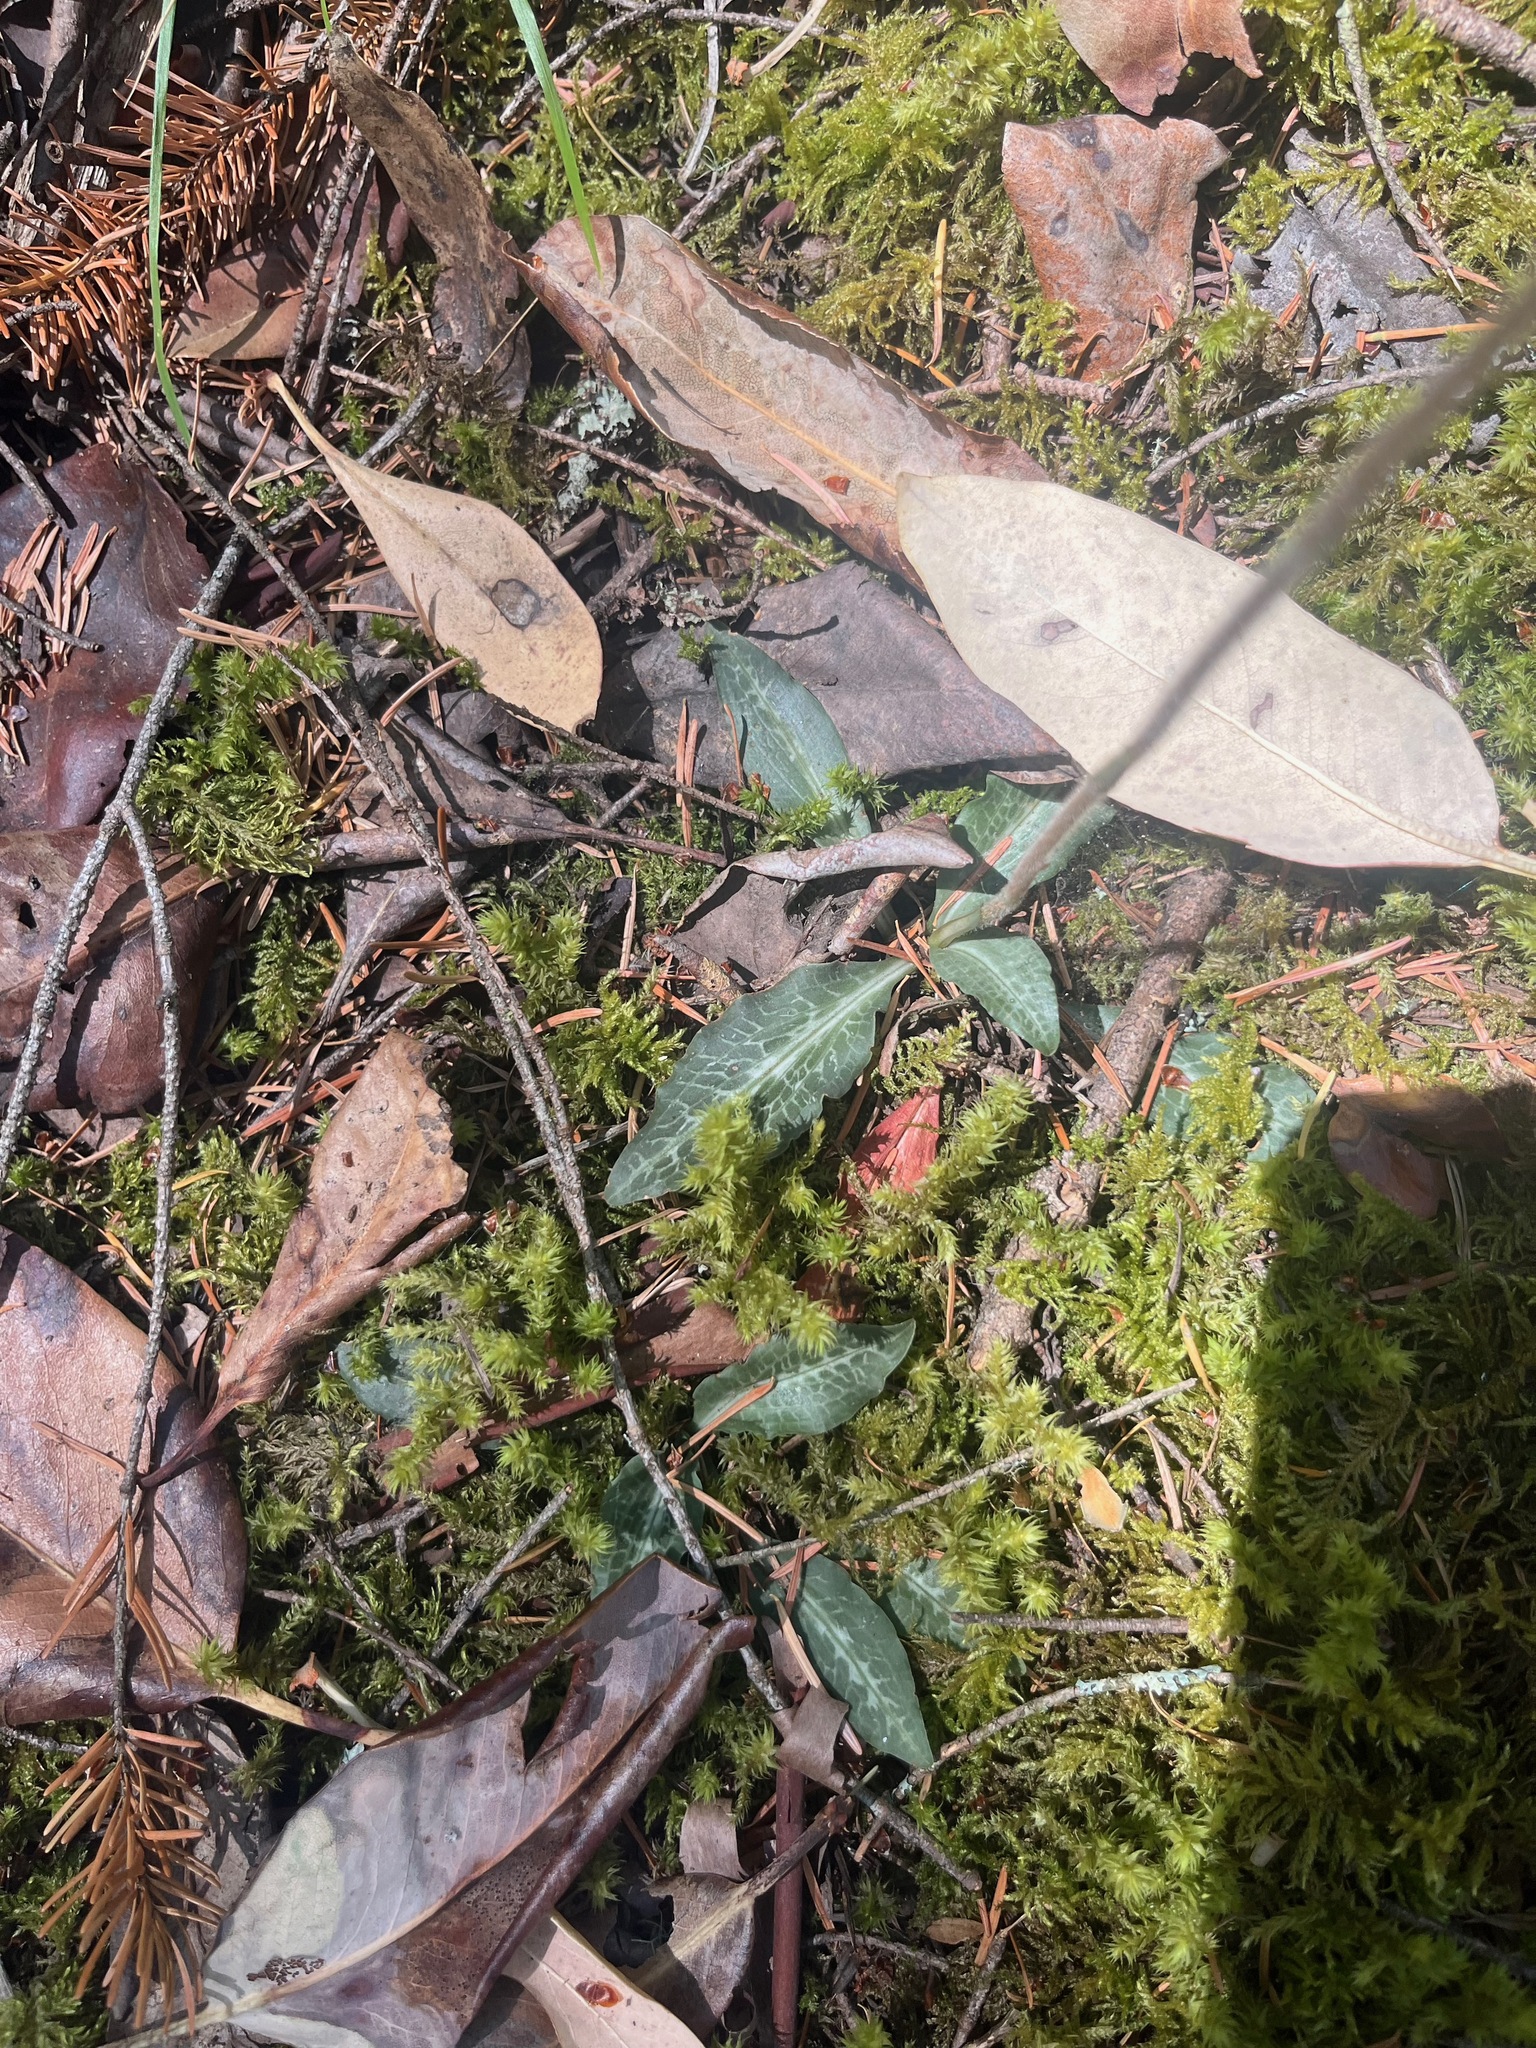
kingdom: Plantae
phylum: Tracheophyta
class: Liliopsida
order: Asparagales
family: Orchidaceae
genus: Goodyera
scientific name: Goodyera oblongifolia
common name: Giant rattlesnake-plantain
